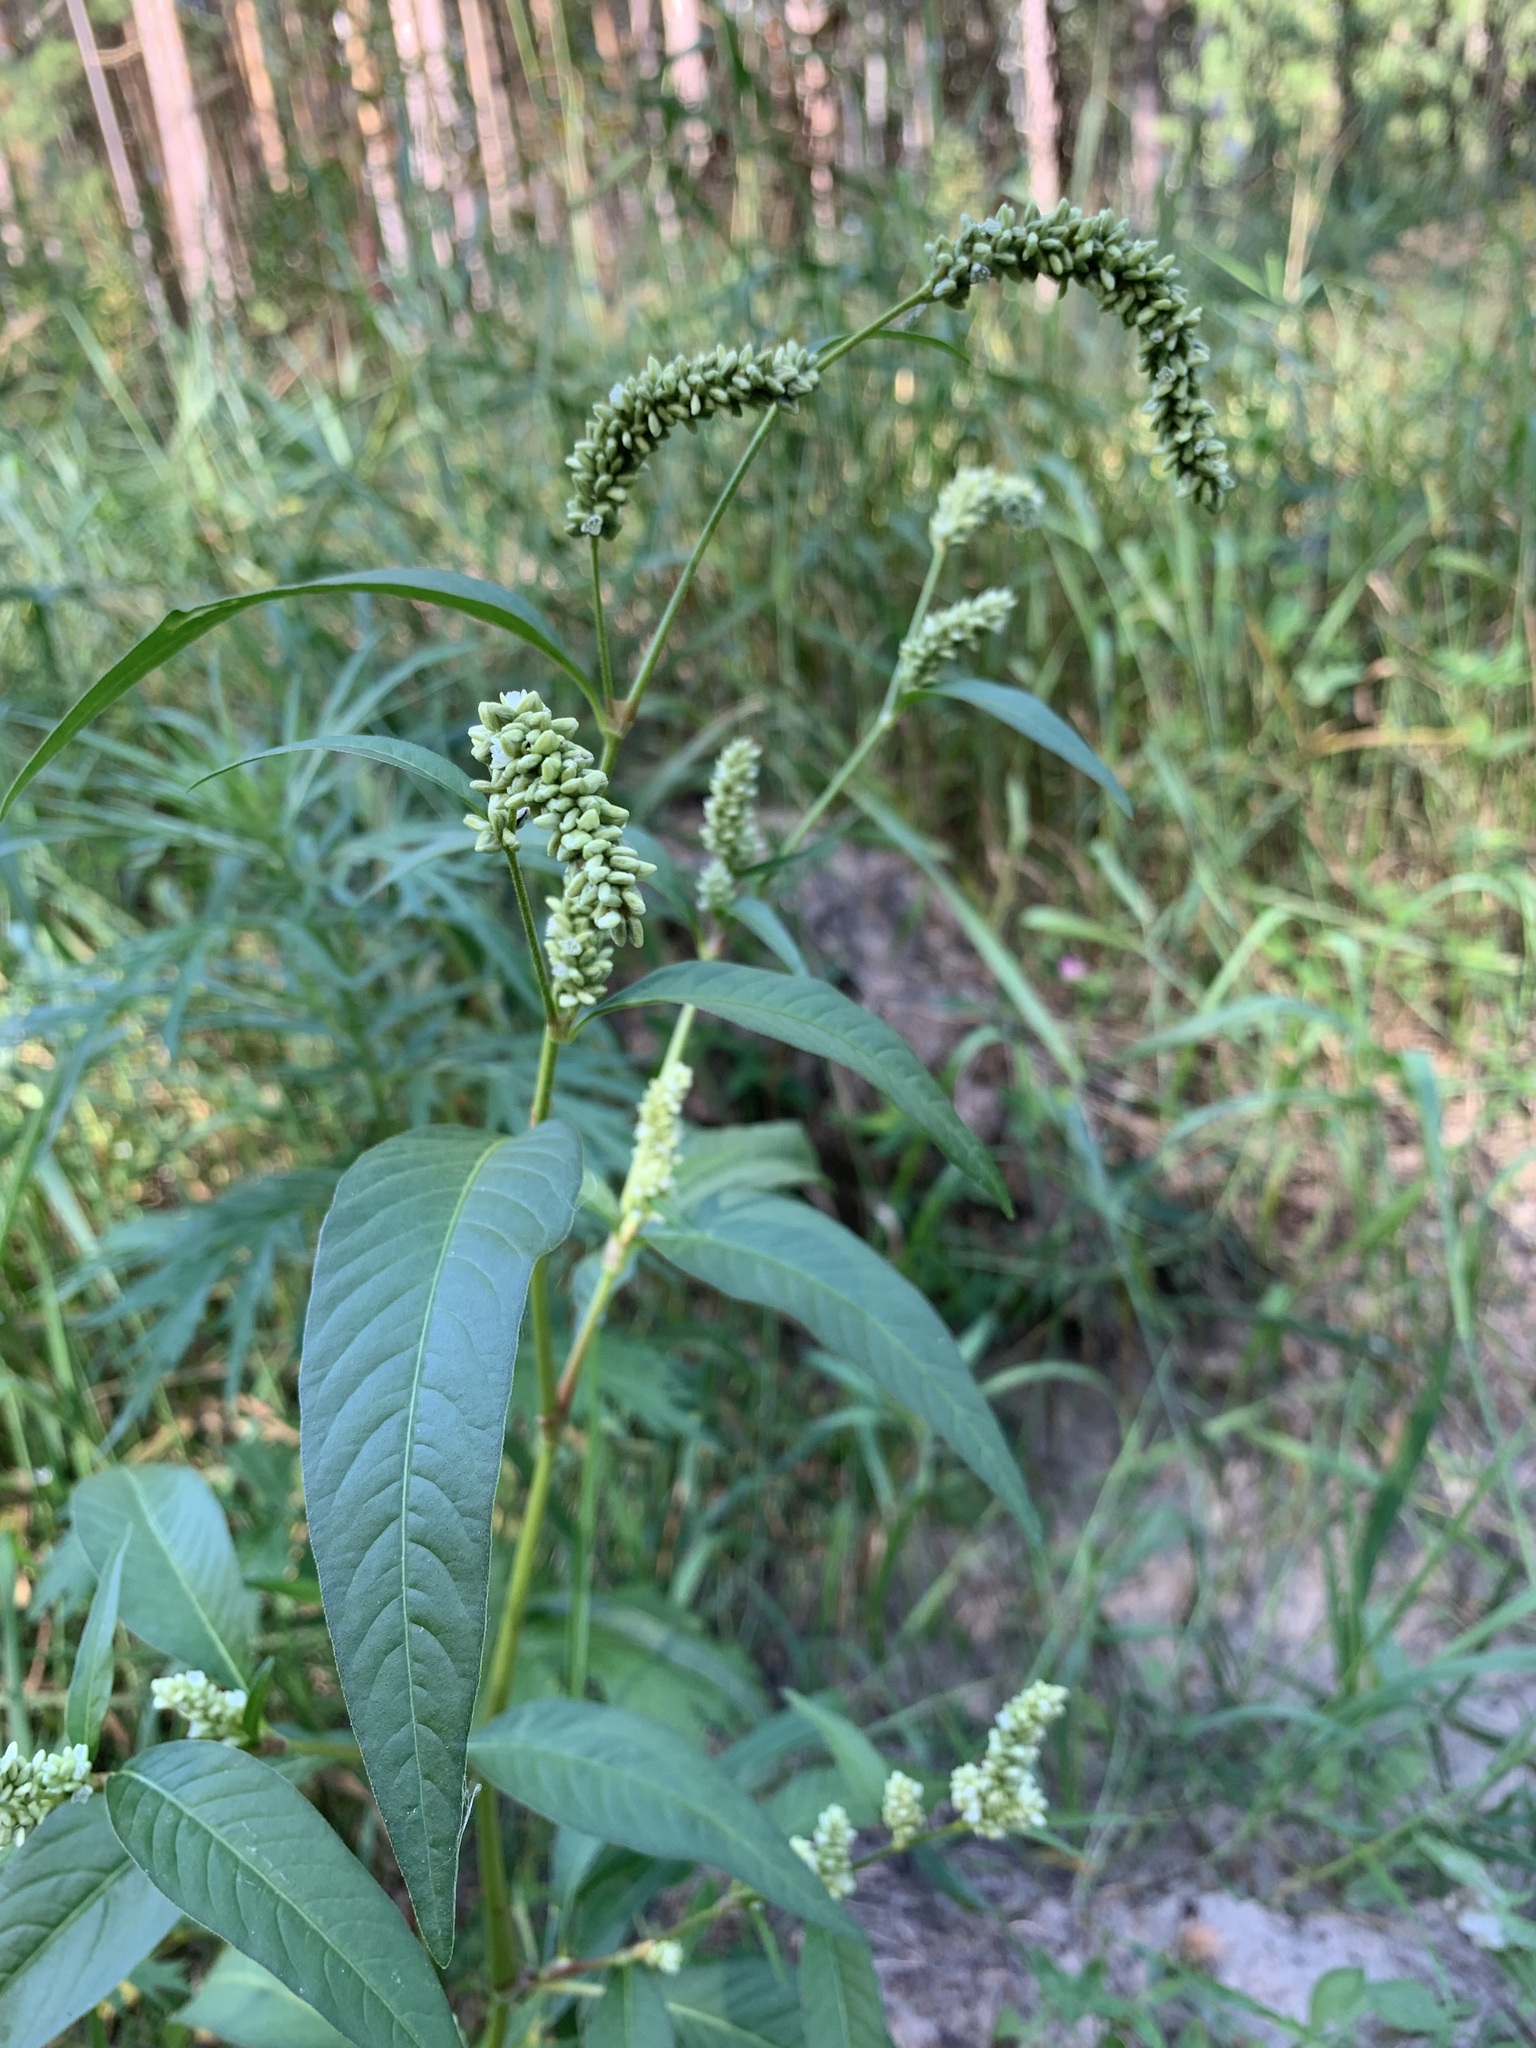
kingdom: Plantae
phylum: Tracheophyta
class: Magnoliopsida
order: Caryophyllales
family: Polygonaceae
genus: Persicaria
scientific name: Persicaria lapathifolia
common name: Curlytop knotweed
